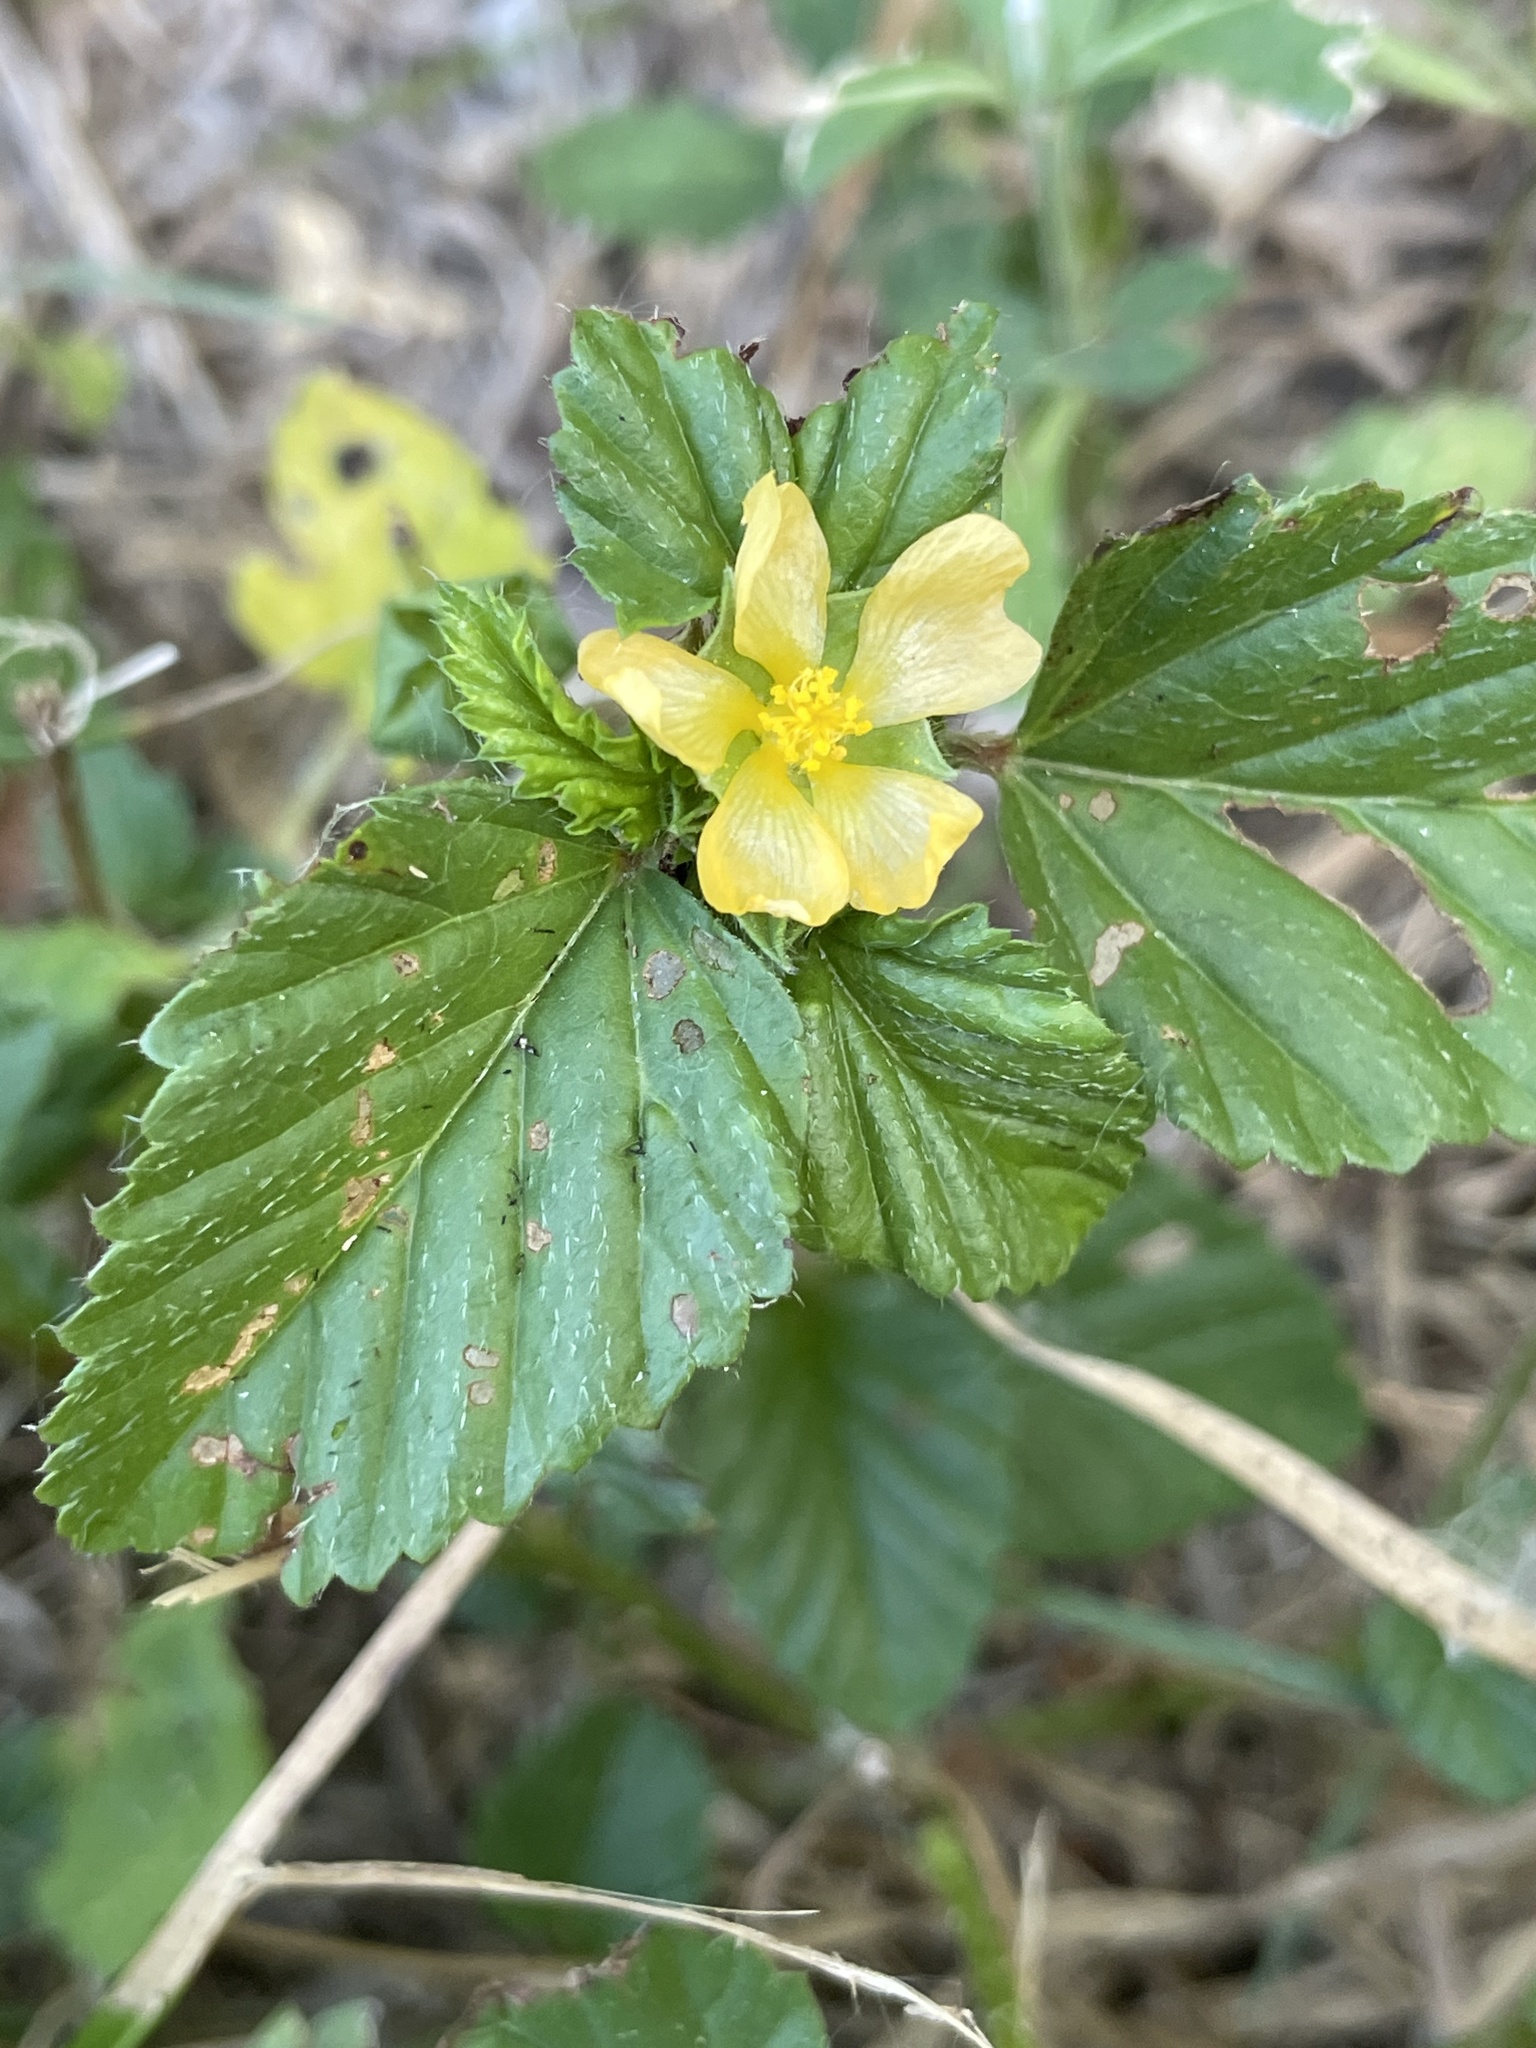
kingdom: Plantae
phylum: Tracheophyta
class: Magnoliopsida
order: Malvales
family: Malvaceae
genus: Malvastrum
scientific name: Malvastrum coromandelianum
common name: Threelobe false mallow
